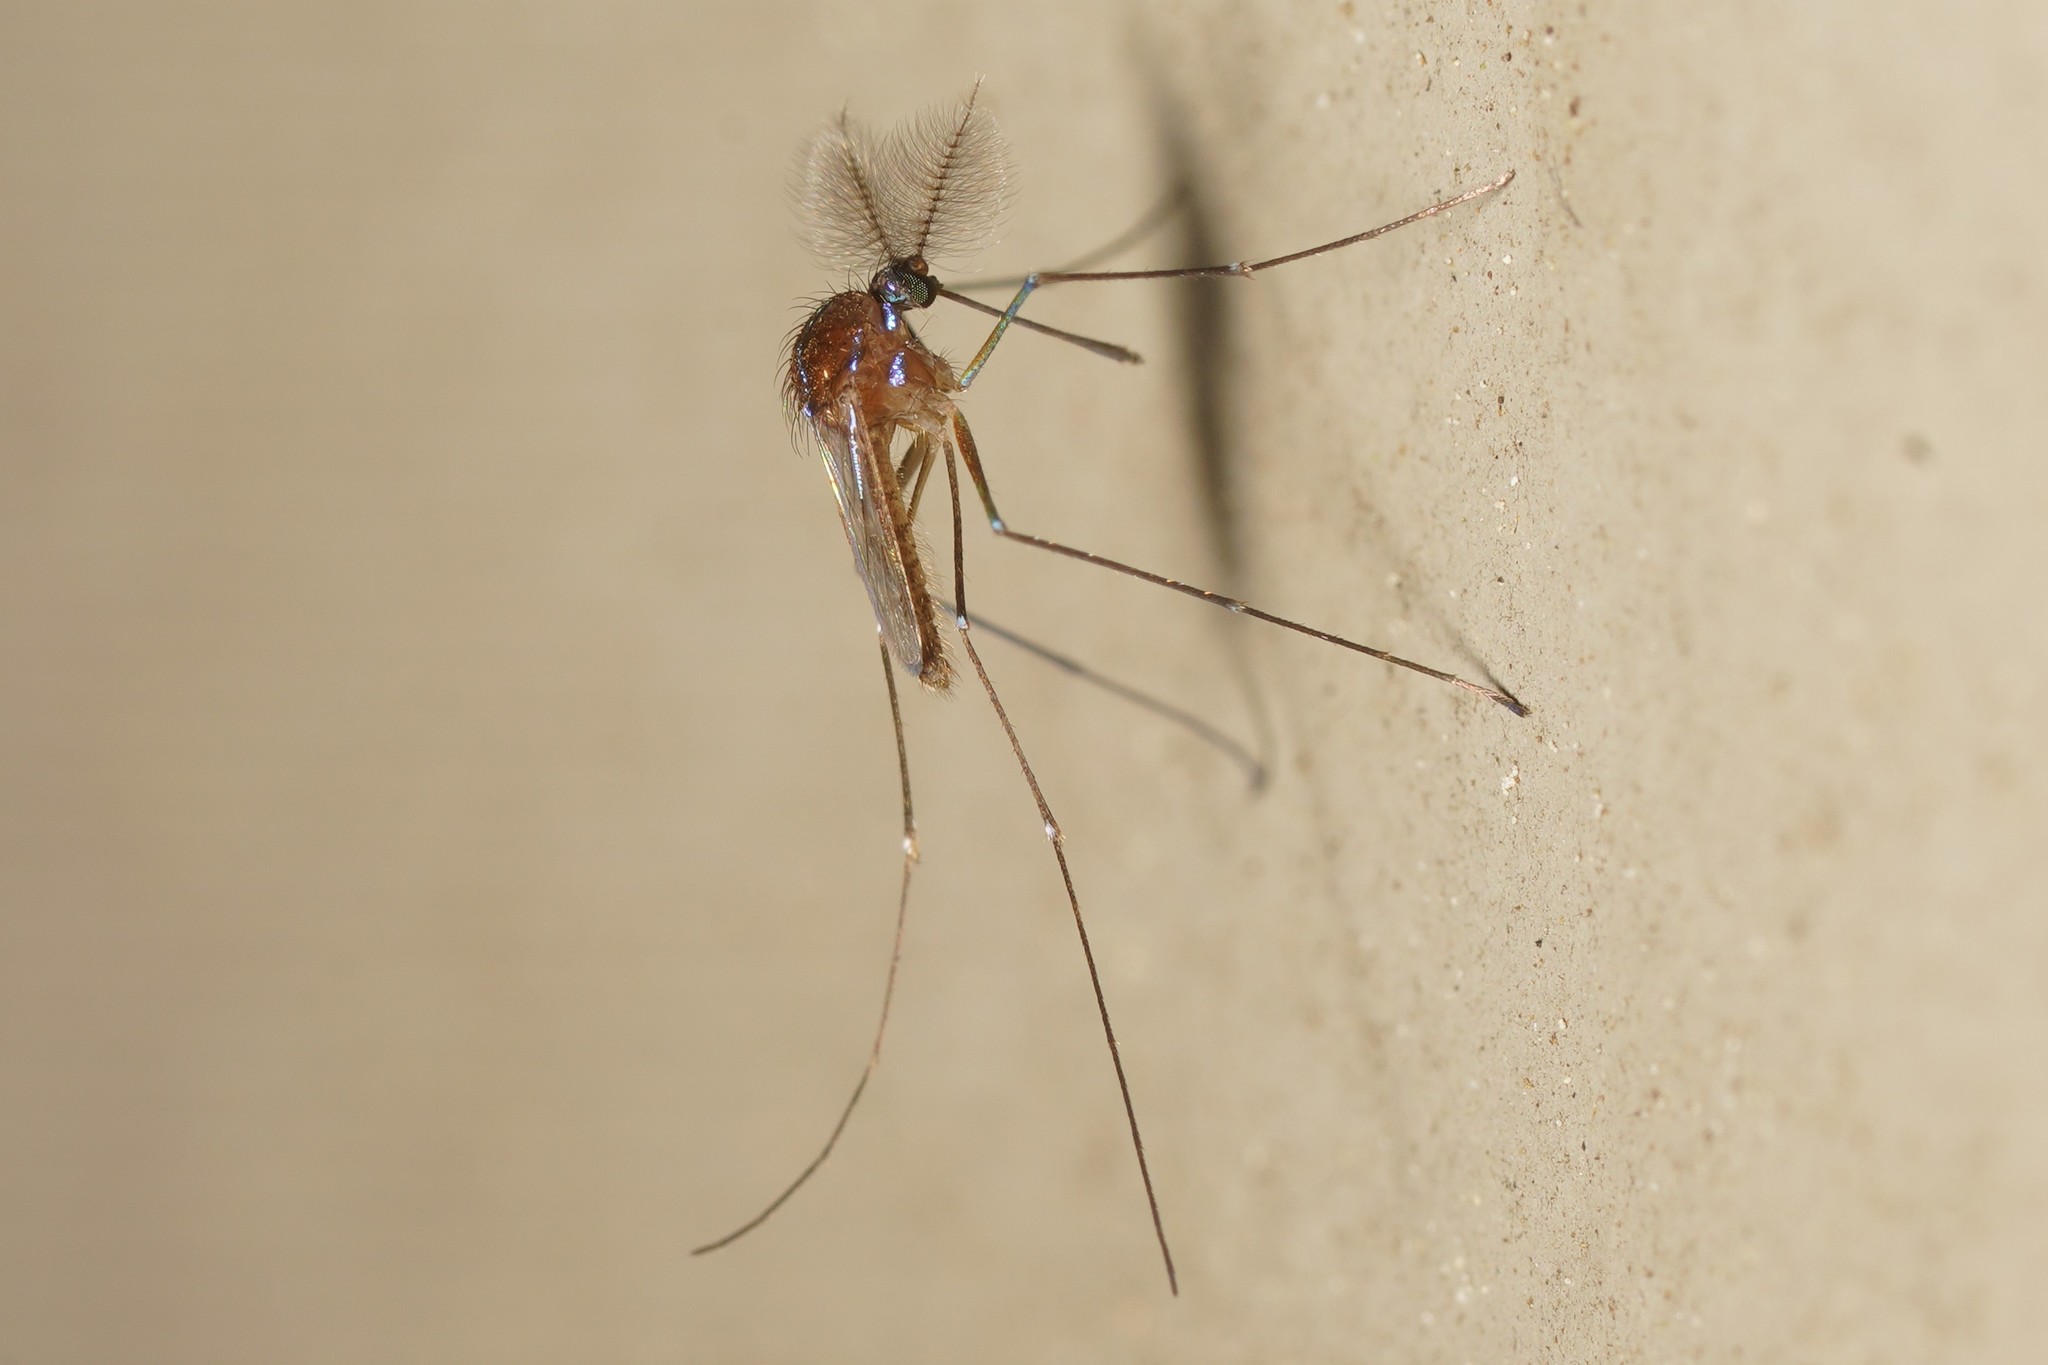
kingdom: Animalia
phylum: Arthropoda
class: Insecta
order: Diptera
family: Culicidae
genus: Uranotaenia
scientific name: Uranotaenia sapphirina
